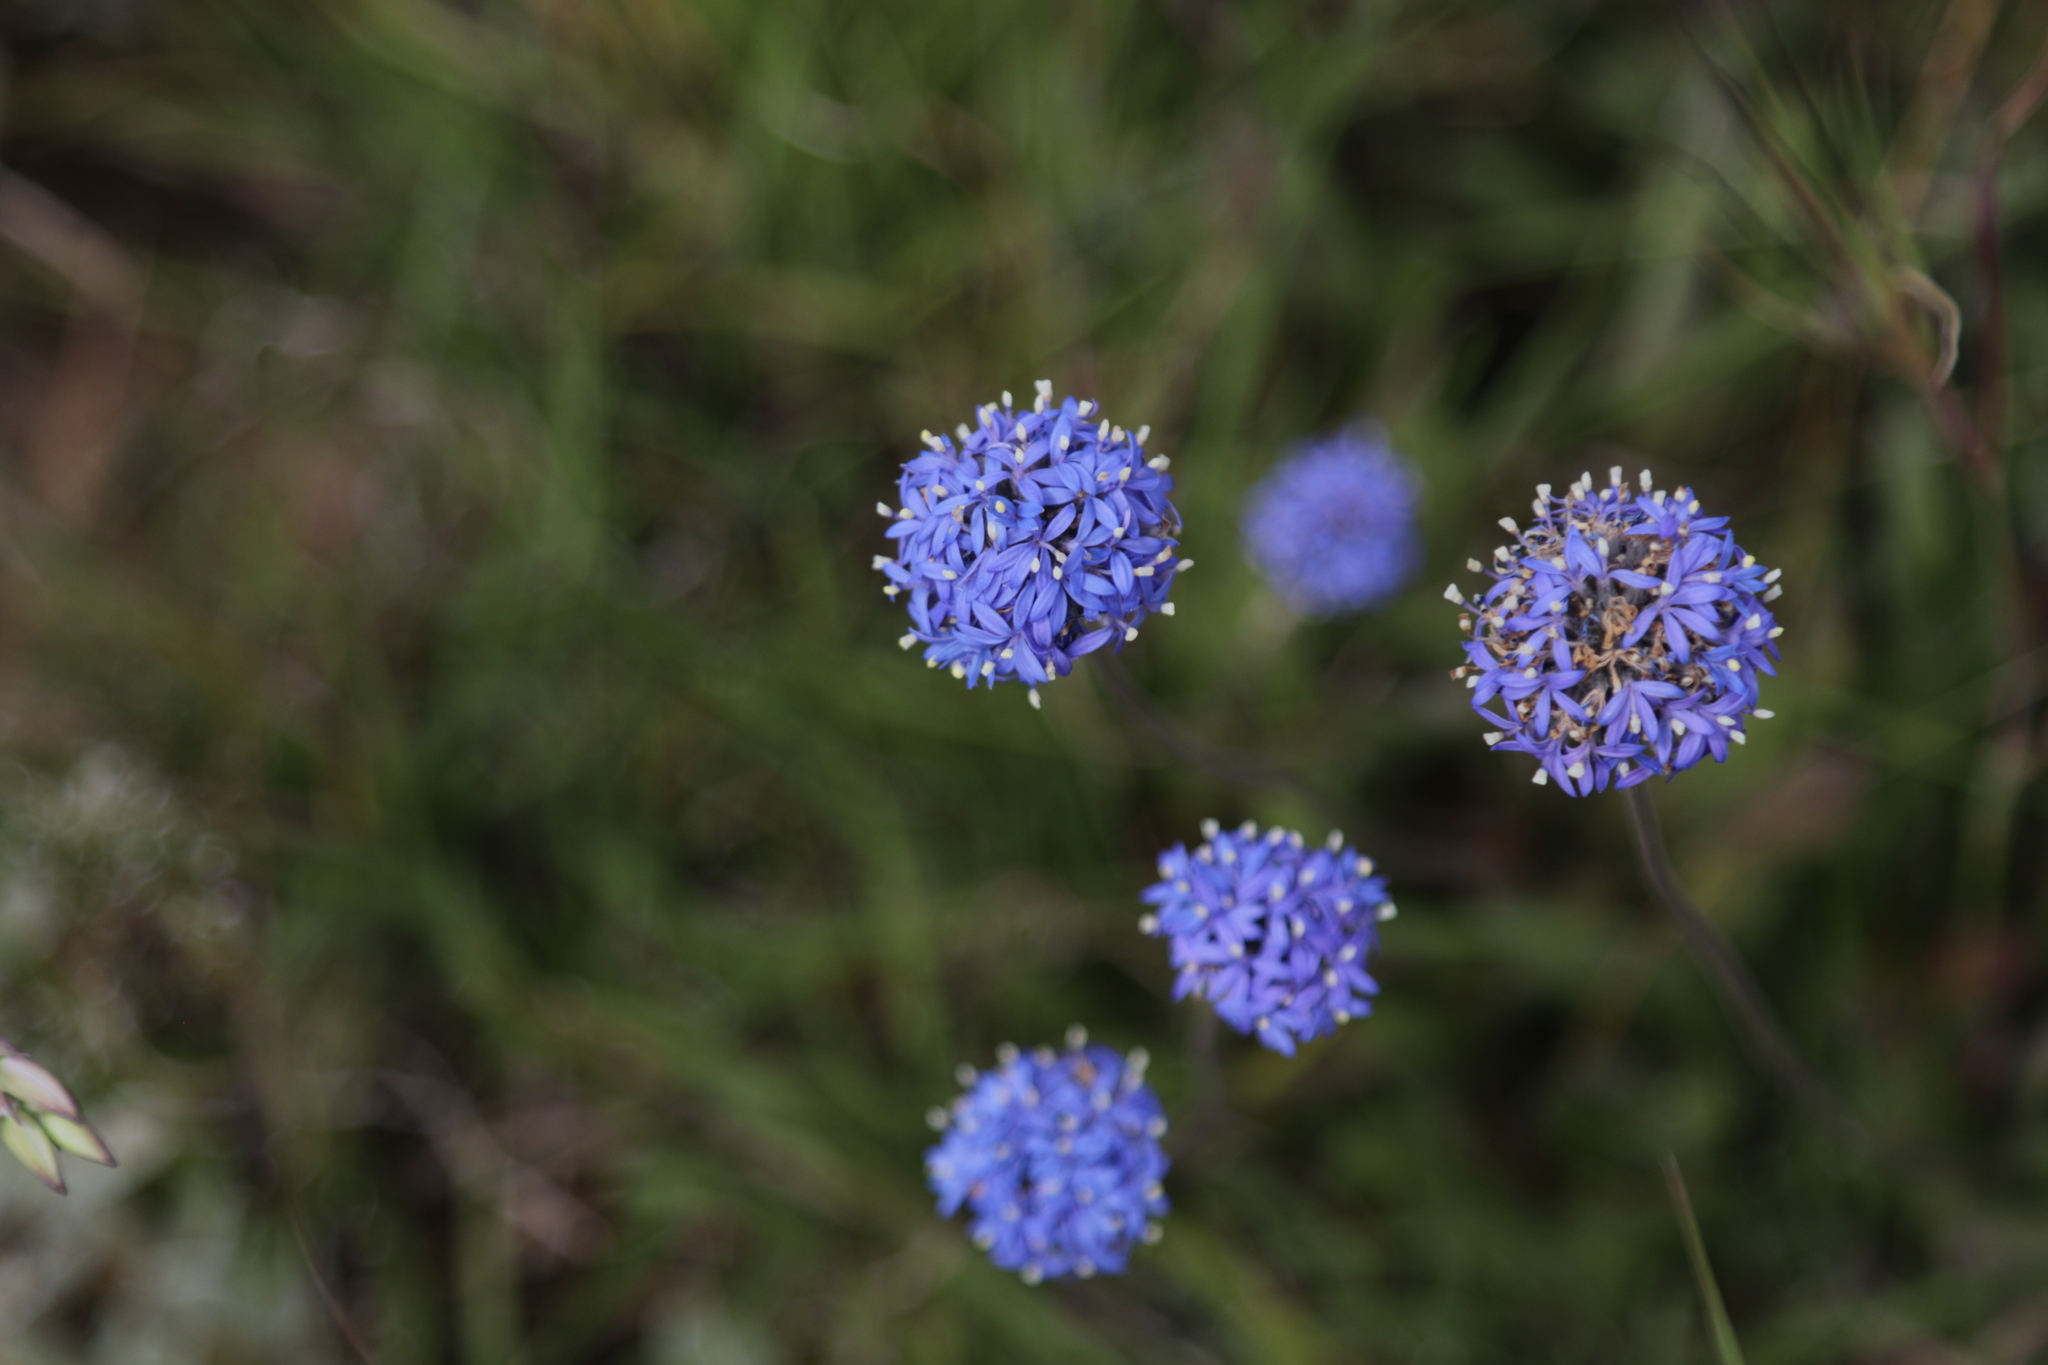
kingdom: Plantae
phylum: Tracheophyta
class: Magnoliopsida
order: Asterales
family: Goodeniaceae
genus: Brunonia
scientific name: Brunonia australis
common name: Blue pincushion
